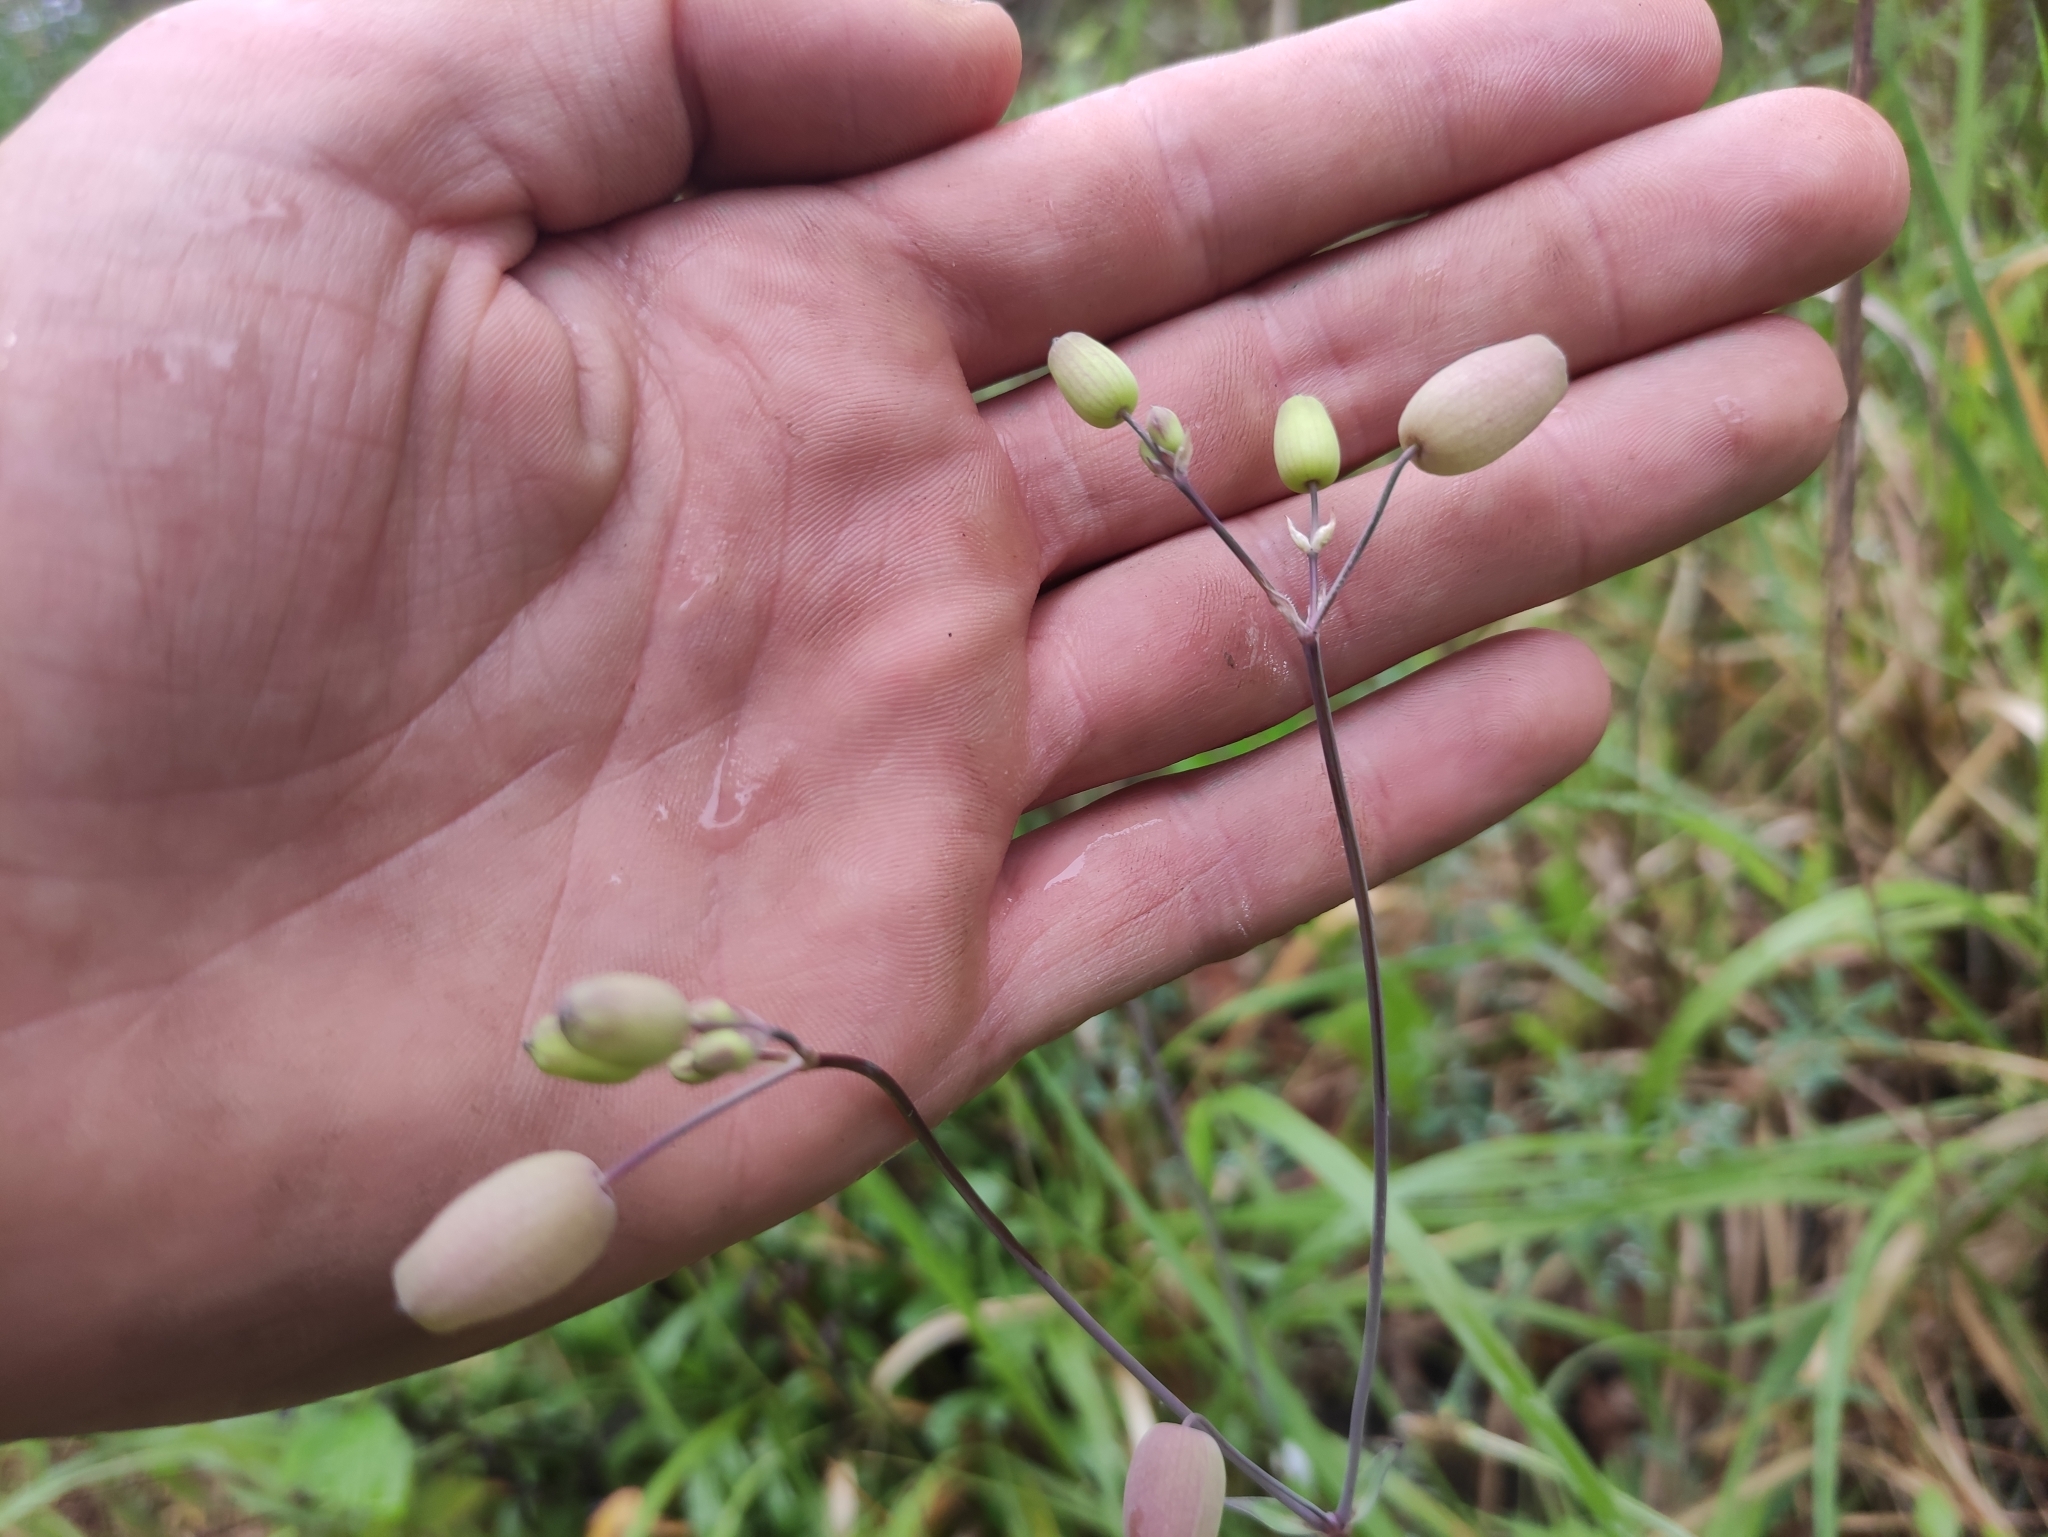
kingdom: Plantae
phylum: Tracheophyta
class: Magnoliopsida
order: Caryophyllales
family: Caryophyllaceae
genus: Silene
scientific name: Silene vulgaris
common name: Bladder campion
